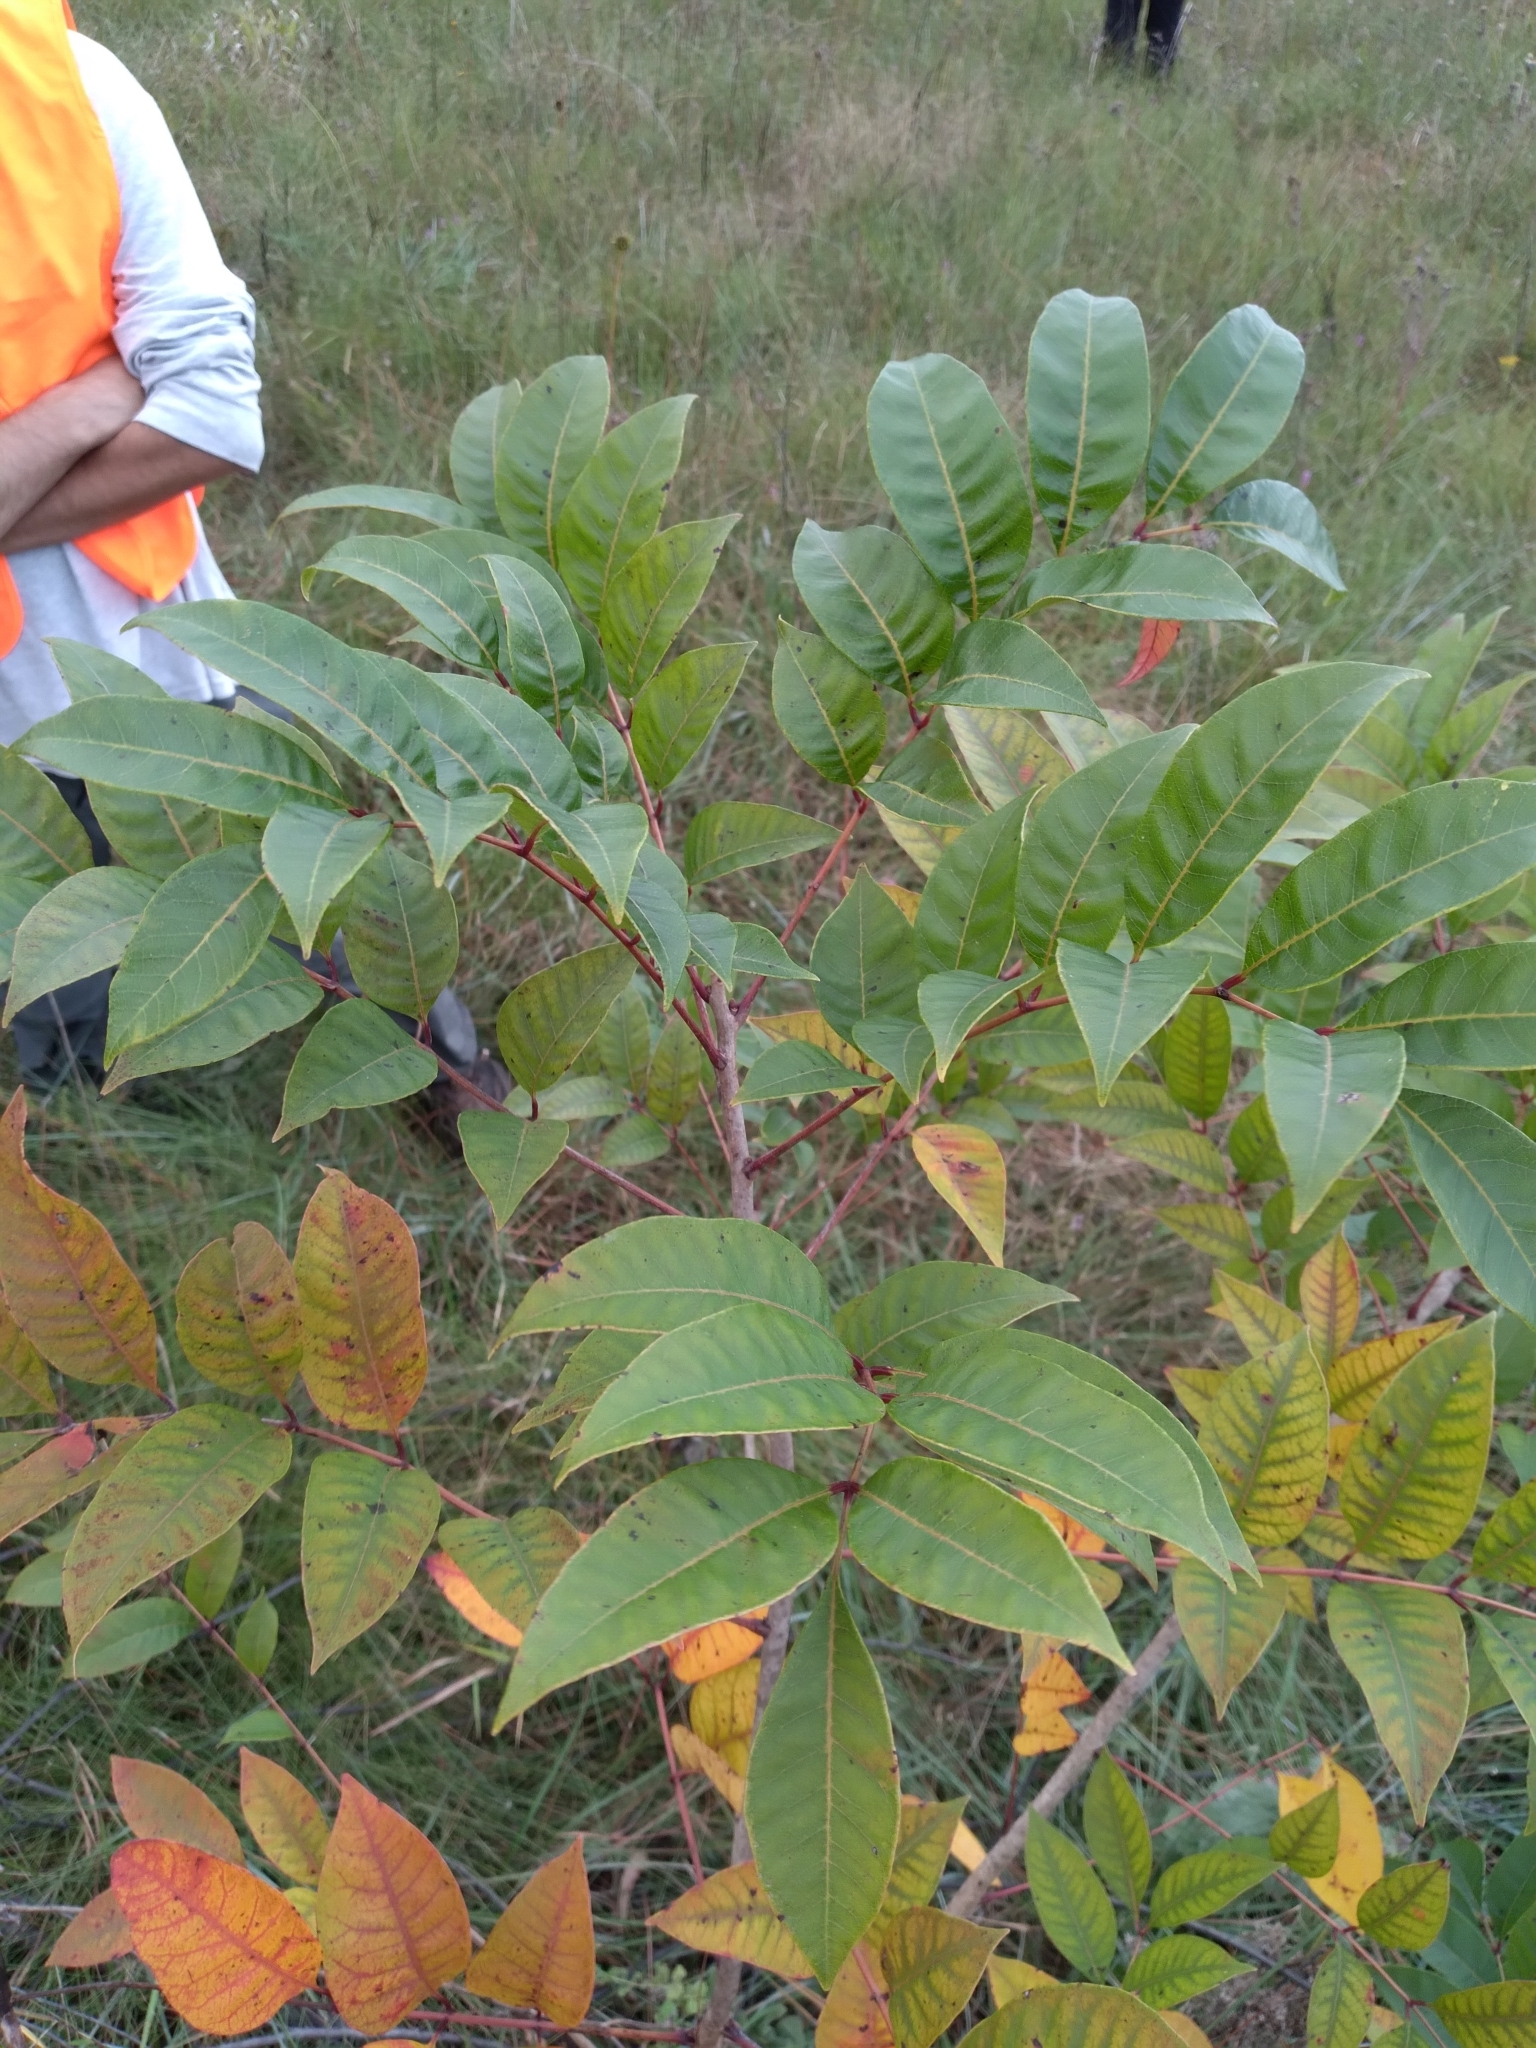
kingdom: Plantae
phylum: Tracheophyta
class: Magnoliopsida
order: Sapindales
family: Anacardiaceae
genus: Toxicodendron
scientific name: Toxicodendron vernix
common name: Poison sumac
